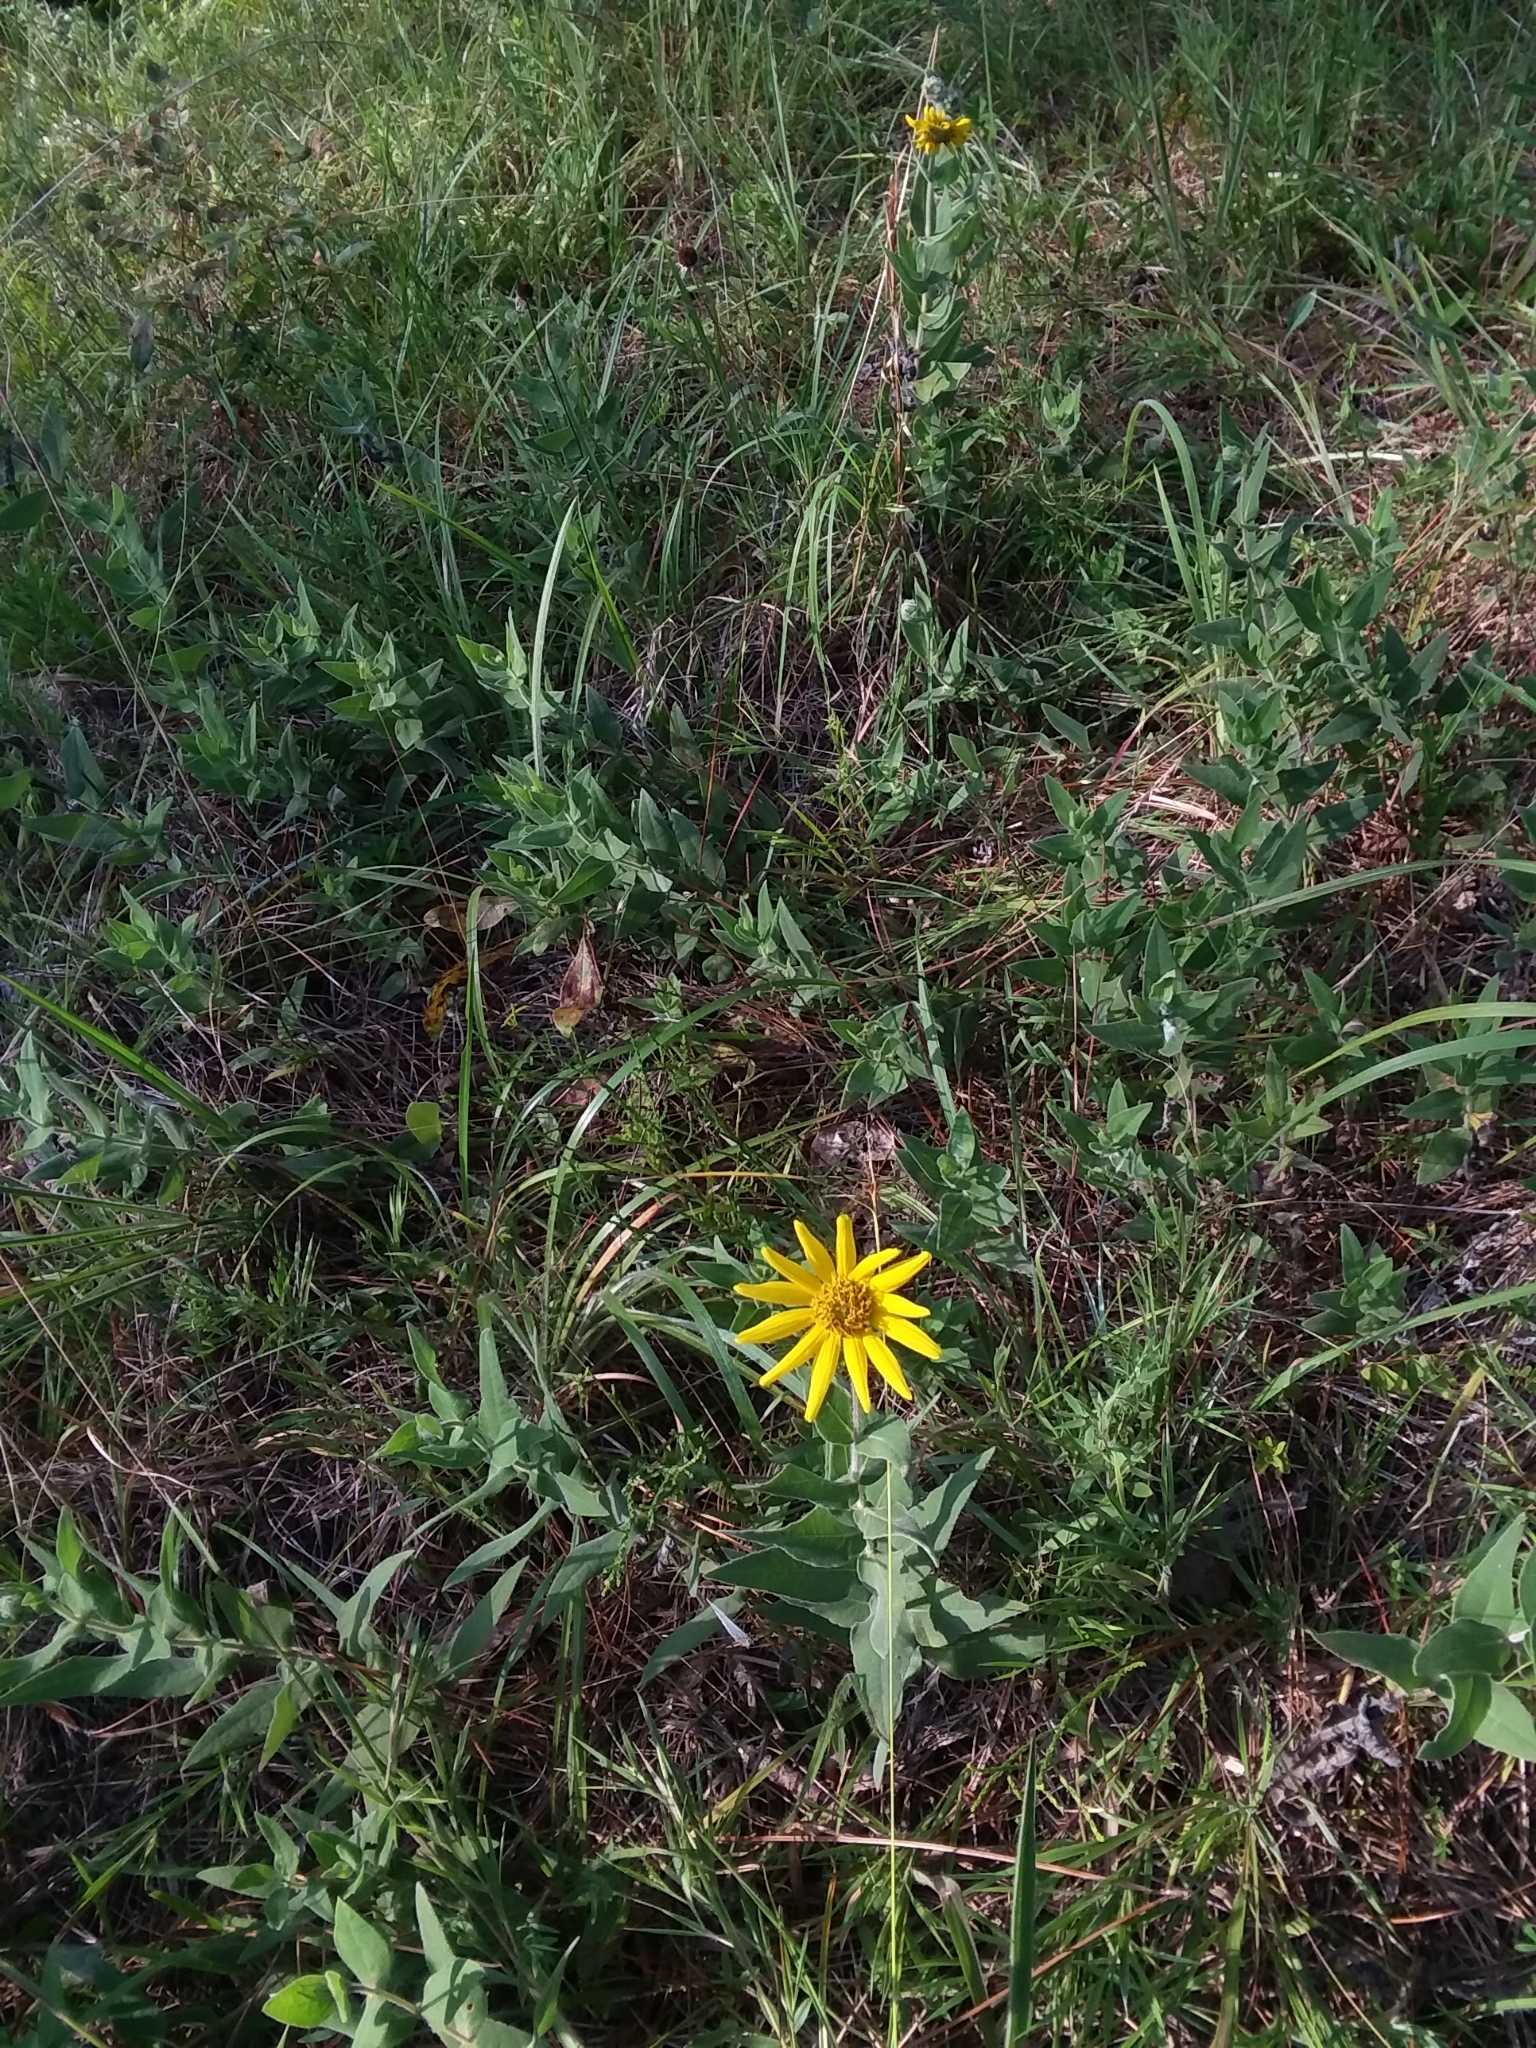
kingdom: Plantae
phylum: Tracheophyta
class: Magnoliopsida
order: Asterales
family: Asteraceae
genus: Helianthus
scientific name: Helianthus mollis
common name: Ashy sunflower
